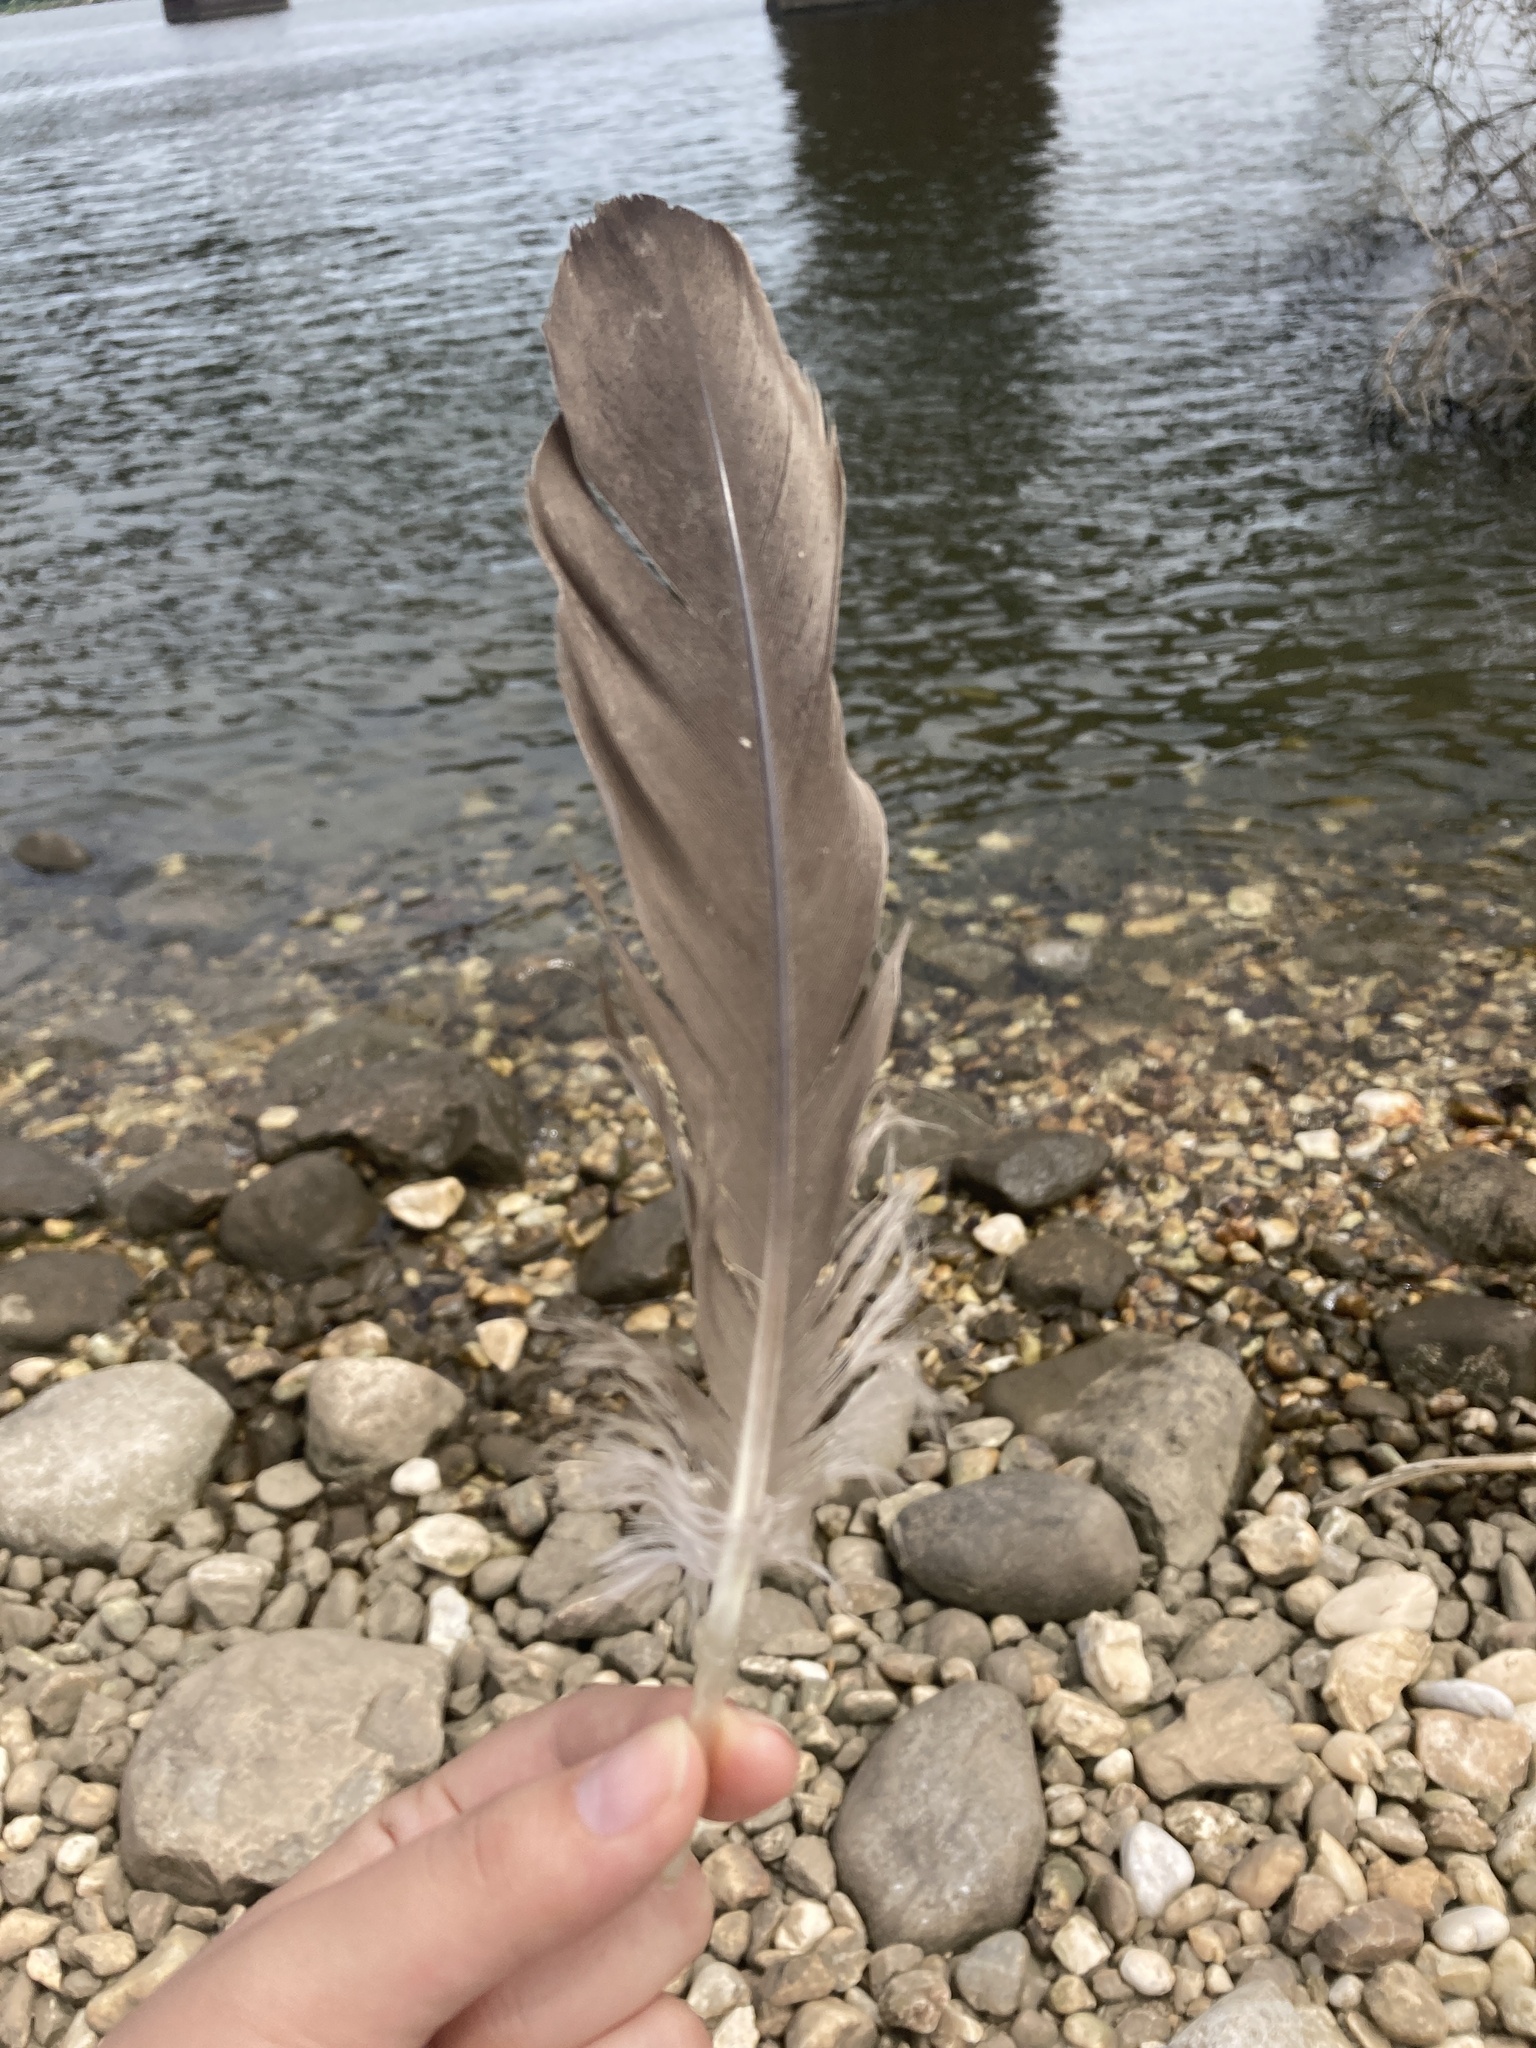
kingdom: Animalia
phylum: Chordata
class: Aves
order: Anseriformes
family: Anatidae
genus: Branta
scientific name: Branta canadensis
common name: Canada goose
